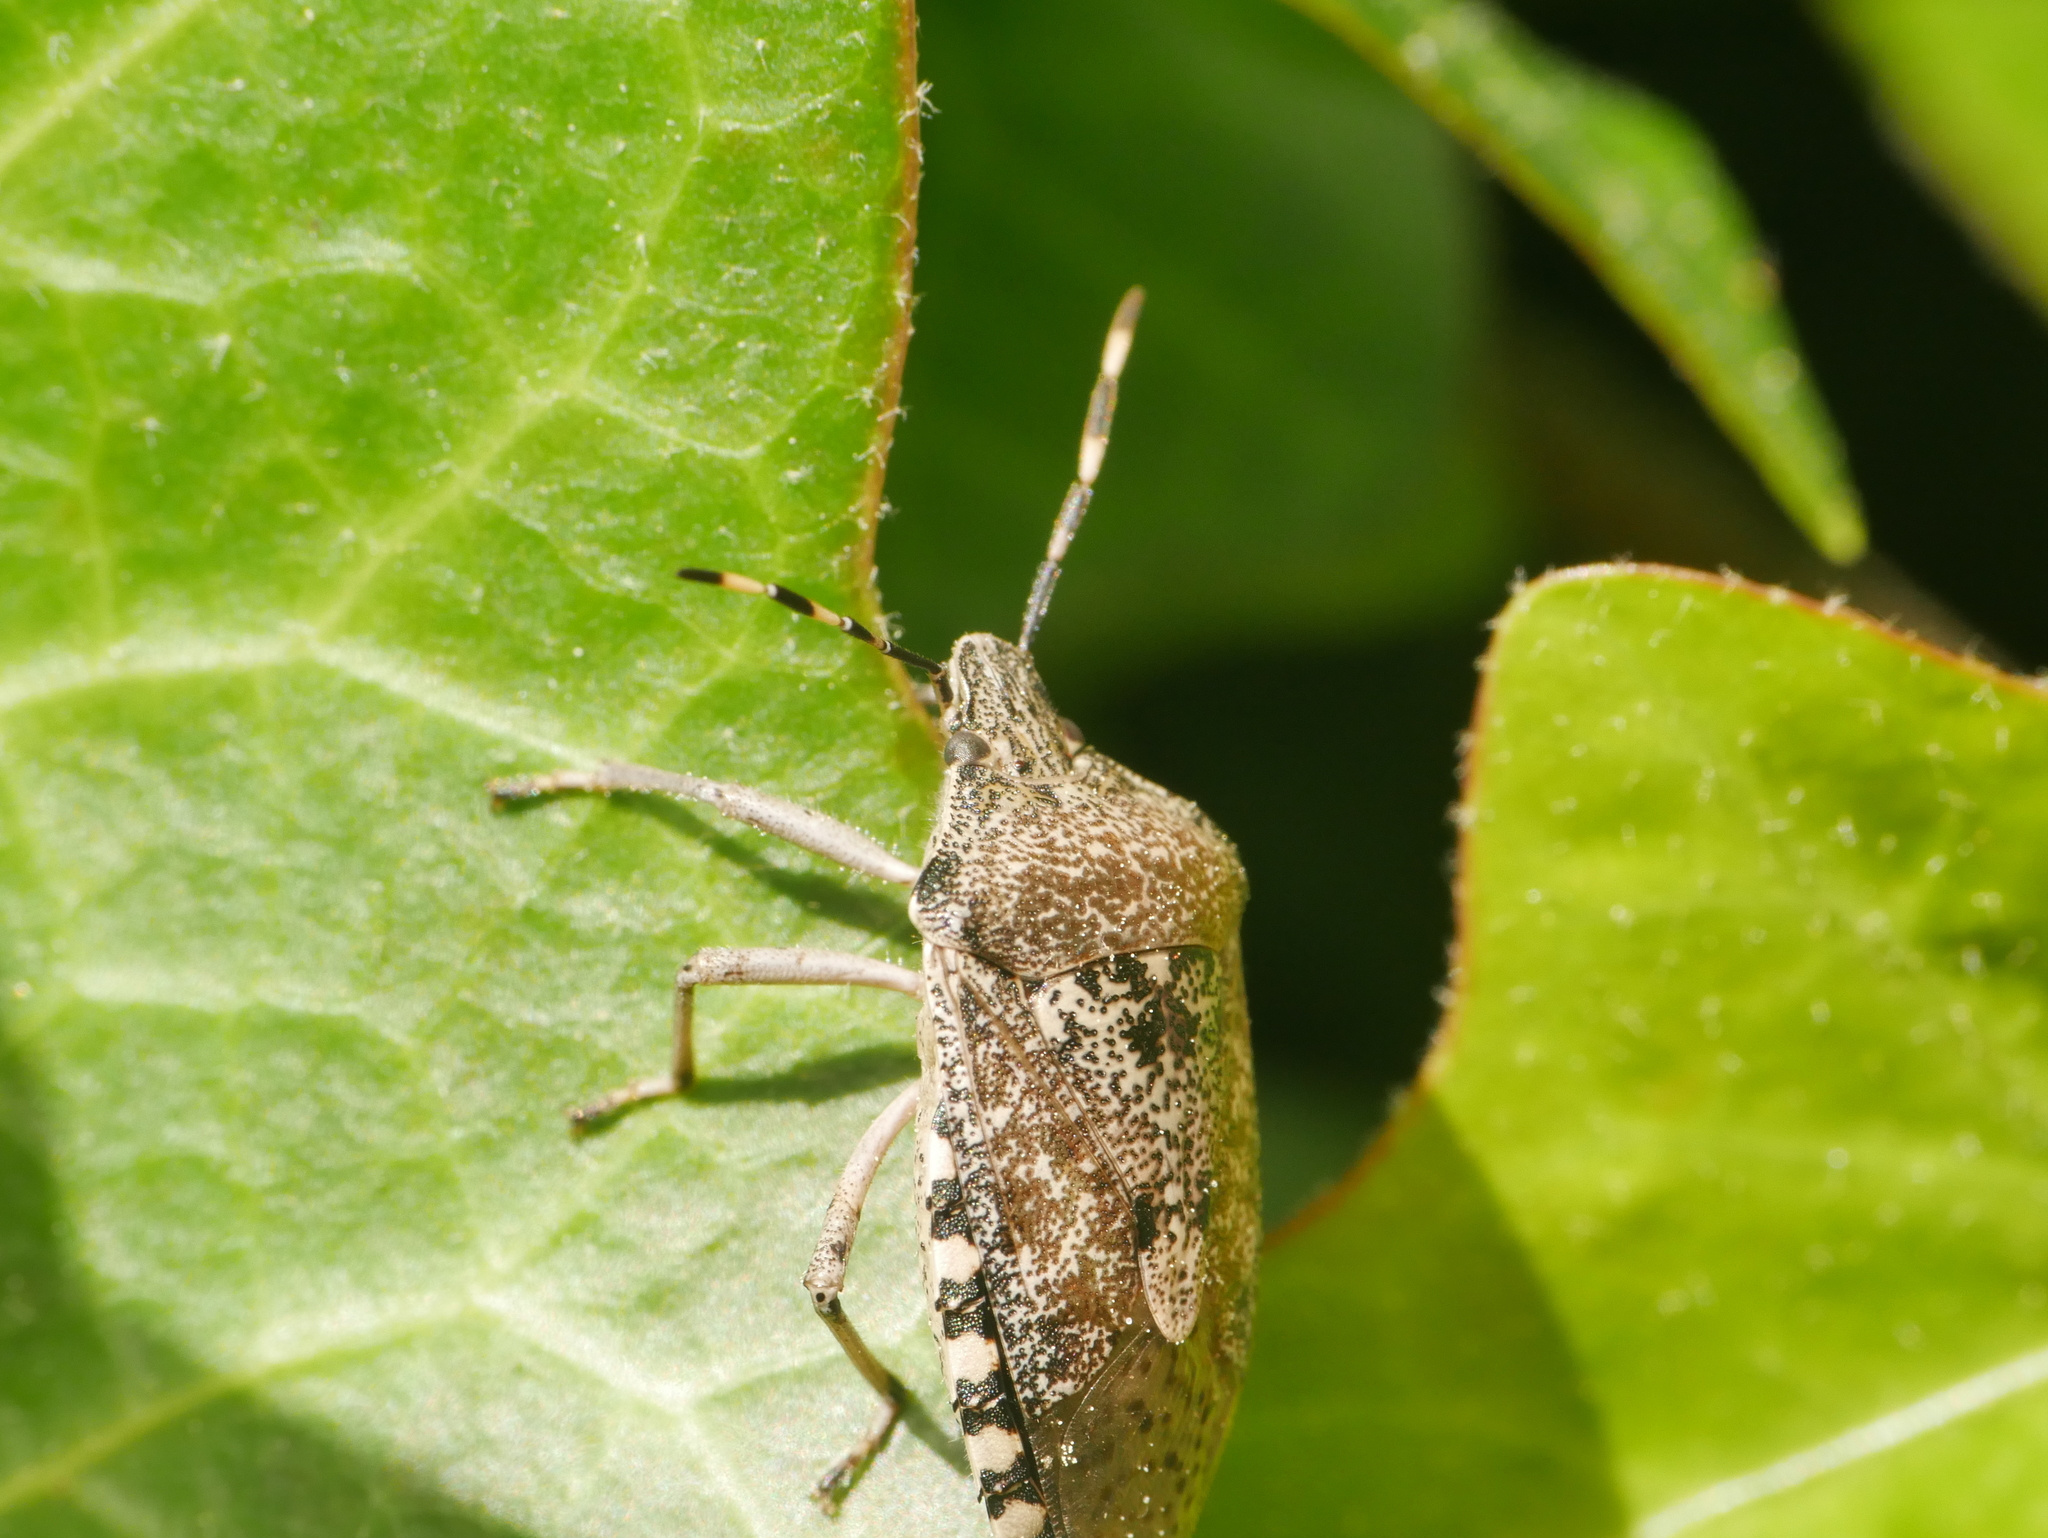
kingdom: Animalia
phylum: Arthropoda
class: Insecta
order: Hemiptera
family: Pentatomidae
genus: Rhaphigaster
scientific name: Rhaphigaster nebulosa
